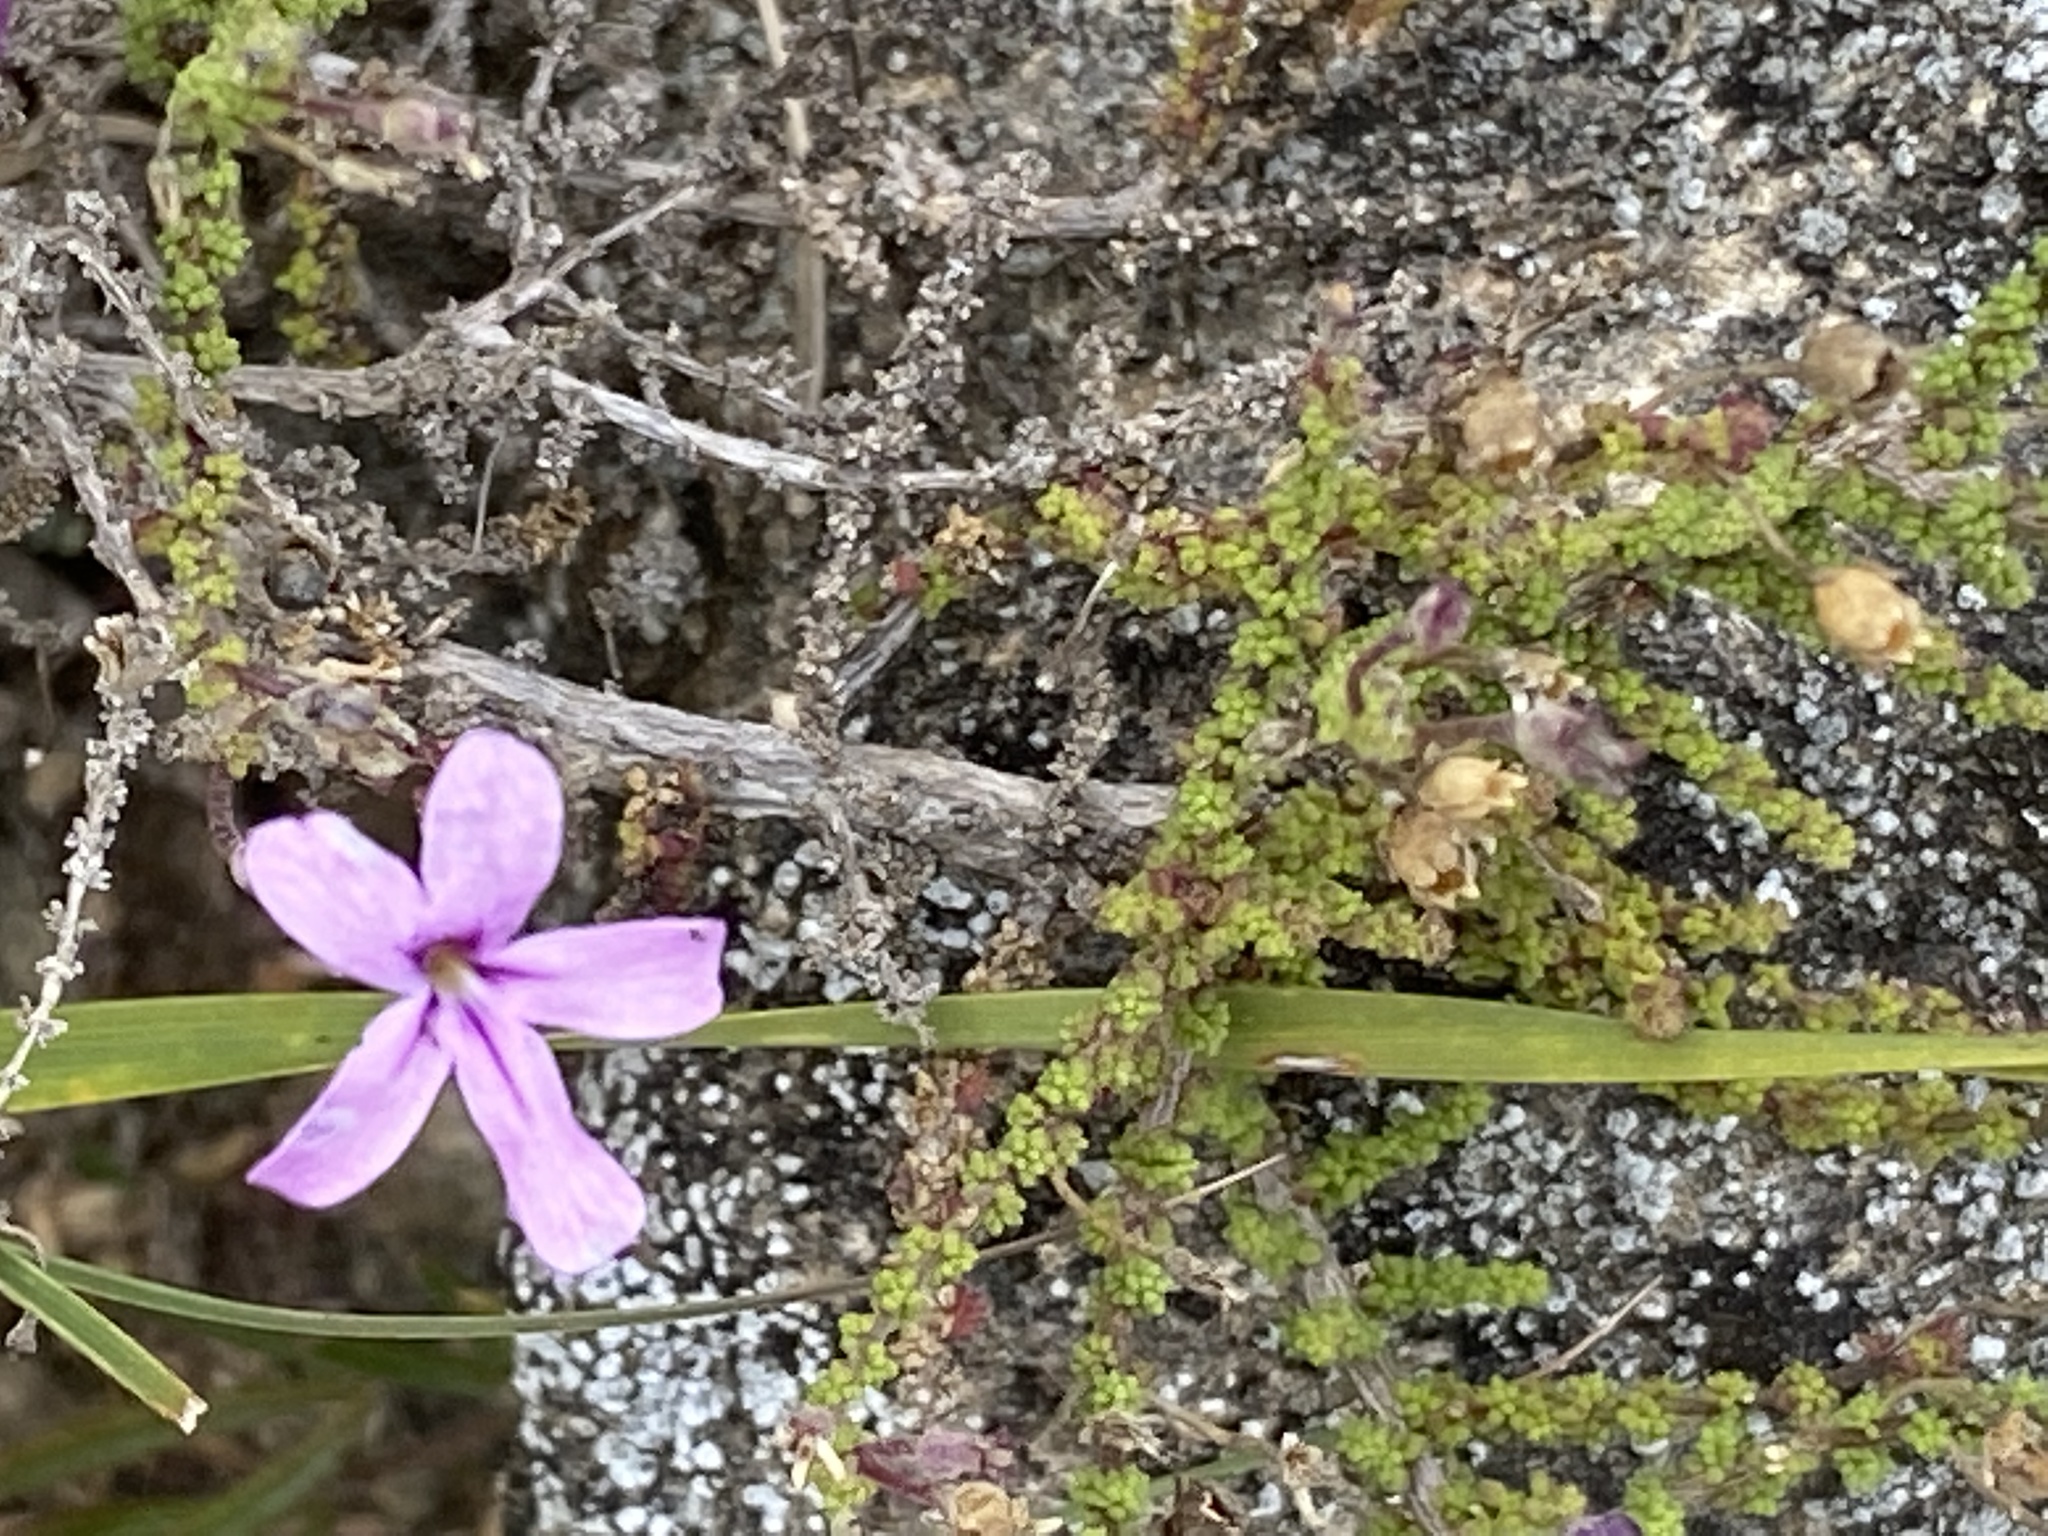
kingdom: Plantae
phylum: Tracheophyta
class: Magnoliopsida
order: Lamiales
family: Scrophulariaceae
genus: Jamesbrittenia
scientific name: Jamesbrittenia calciphila
